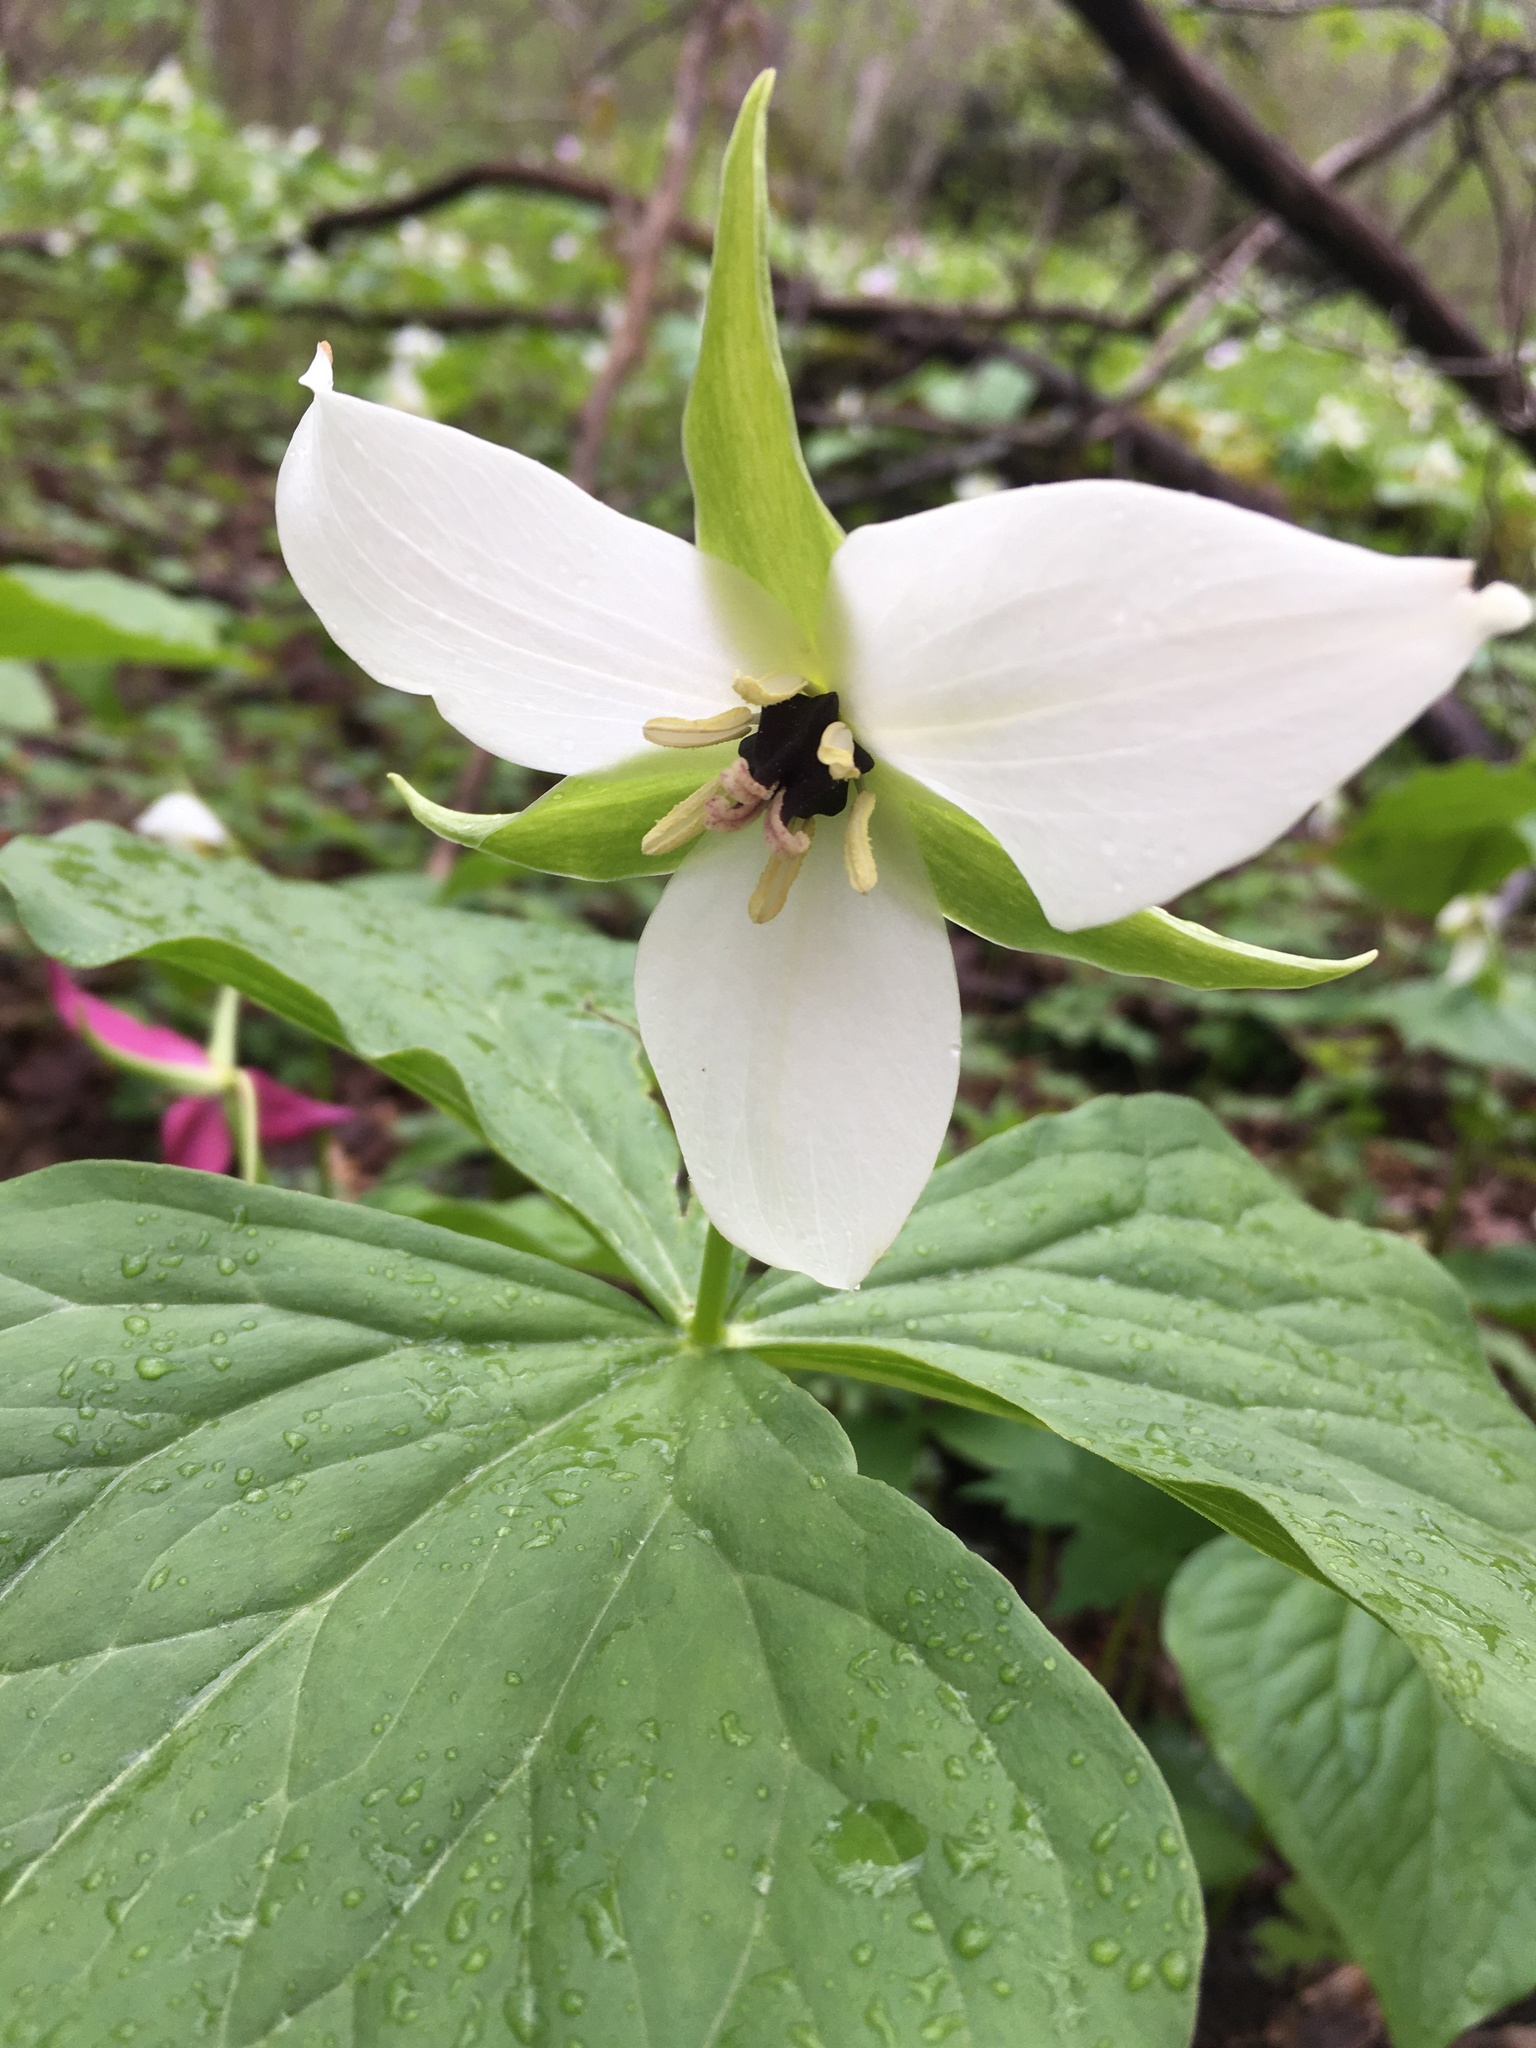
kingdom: Plantae
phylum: Tracheophyta
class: Liliopsida
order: Liliales
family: Melanthiaceae
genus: Trillium
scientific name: Trillium erectum
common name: Purple trillium
